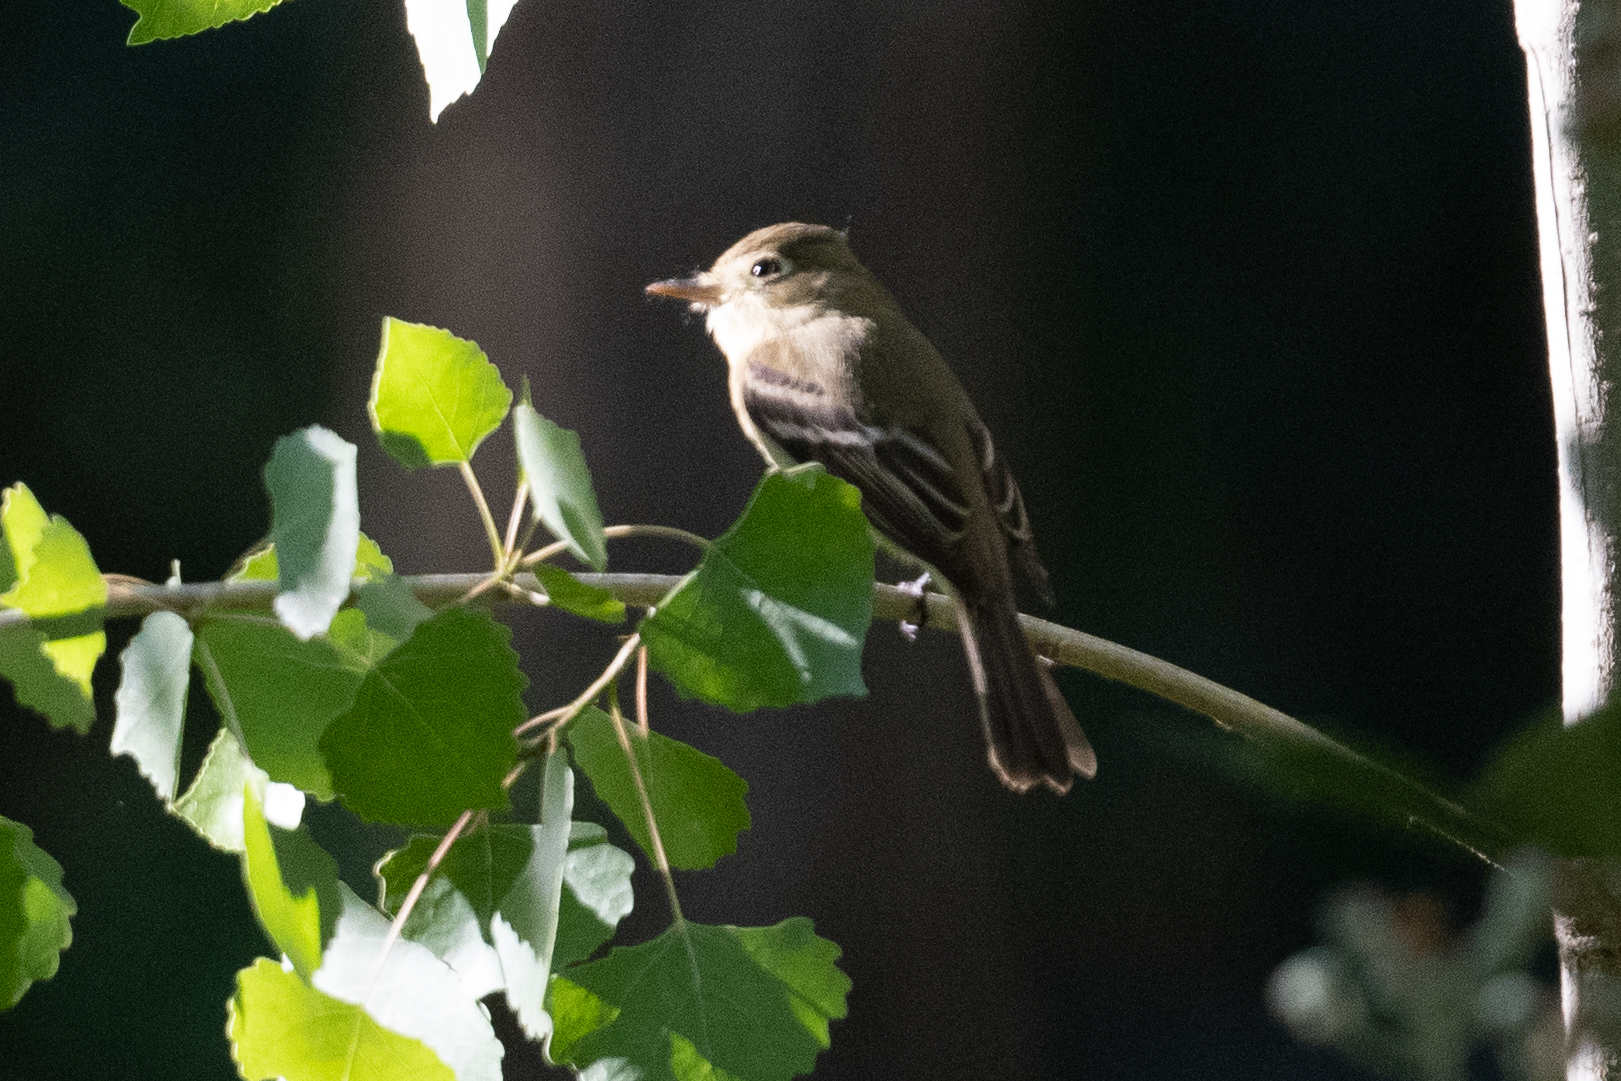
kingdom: Animalia
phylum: Chordata
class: Aves
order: Passeriformes
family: Tyrannidae
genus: Empidonax
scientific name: Empidonax difficilis
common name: Pacific-slope flycatcher
